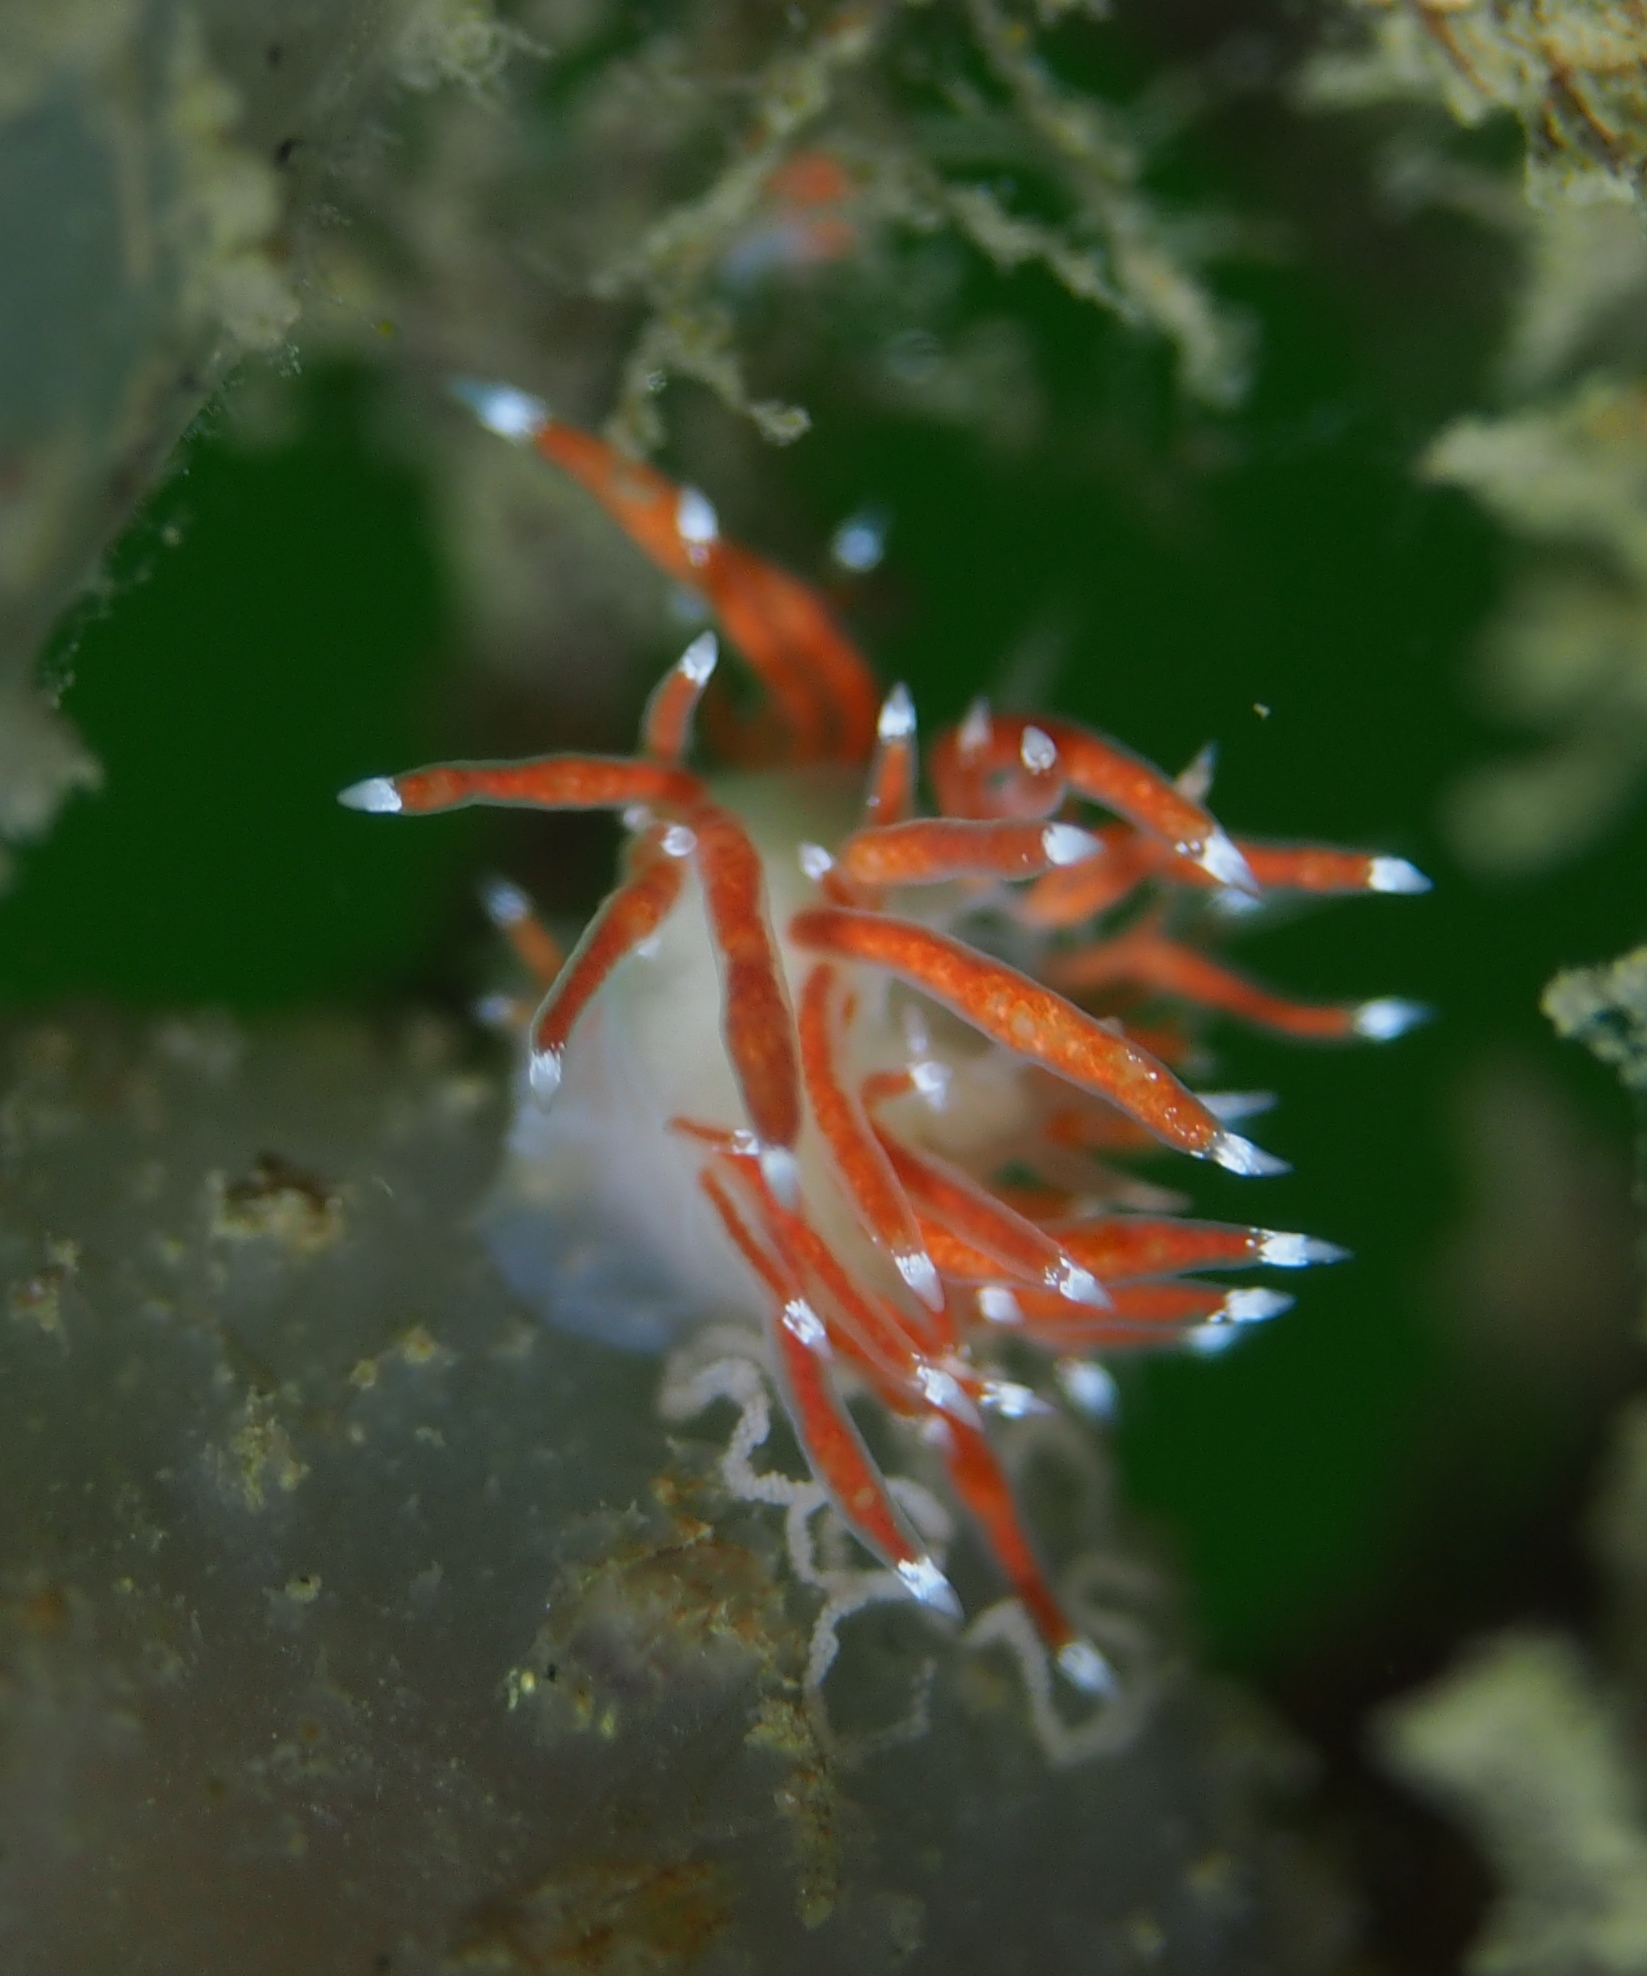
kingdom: Animalia
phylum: Mollusca
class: Gastropoda
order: Nudibranchia
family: Coryphellidae
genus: Coryphella
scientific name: Coryphella gracilis
